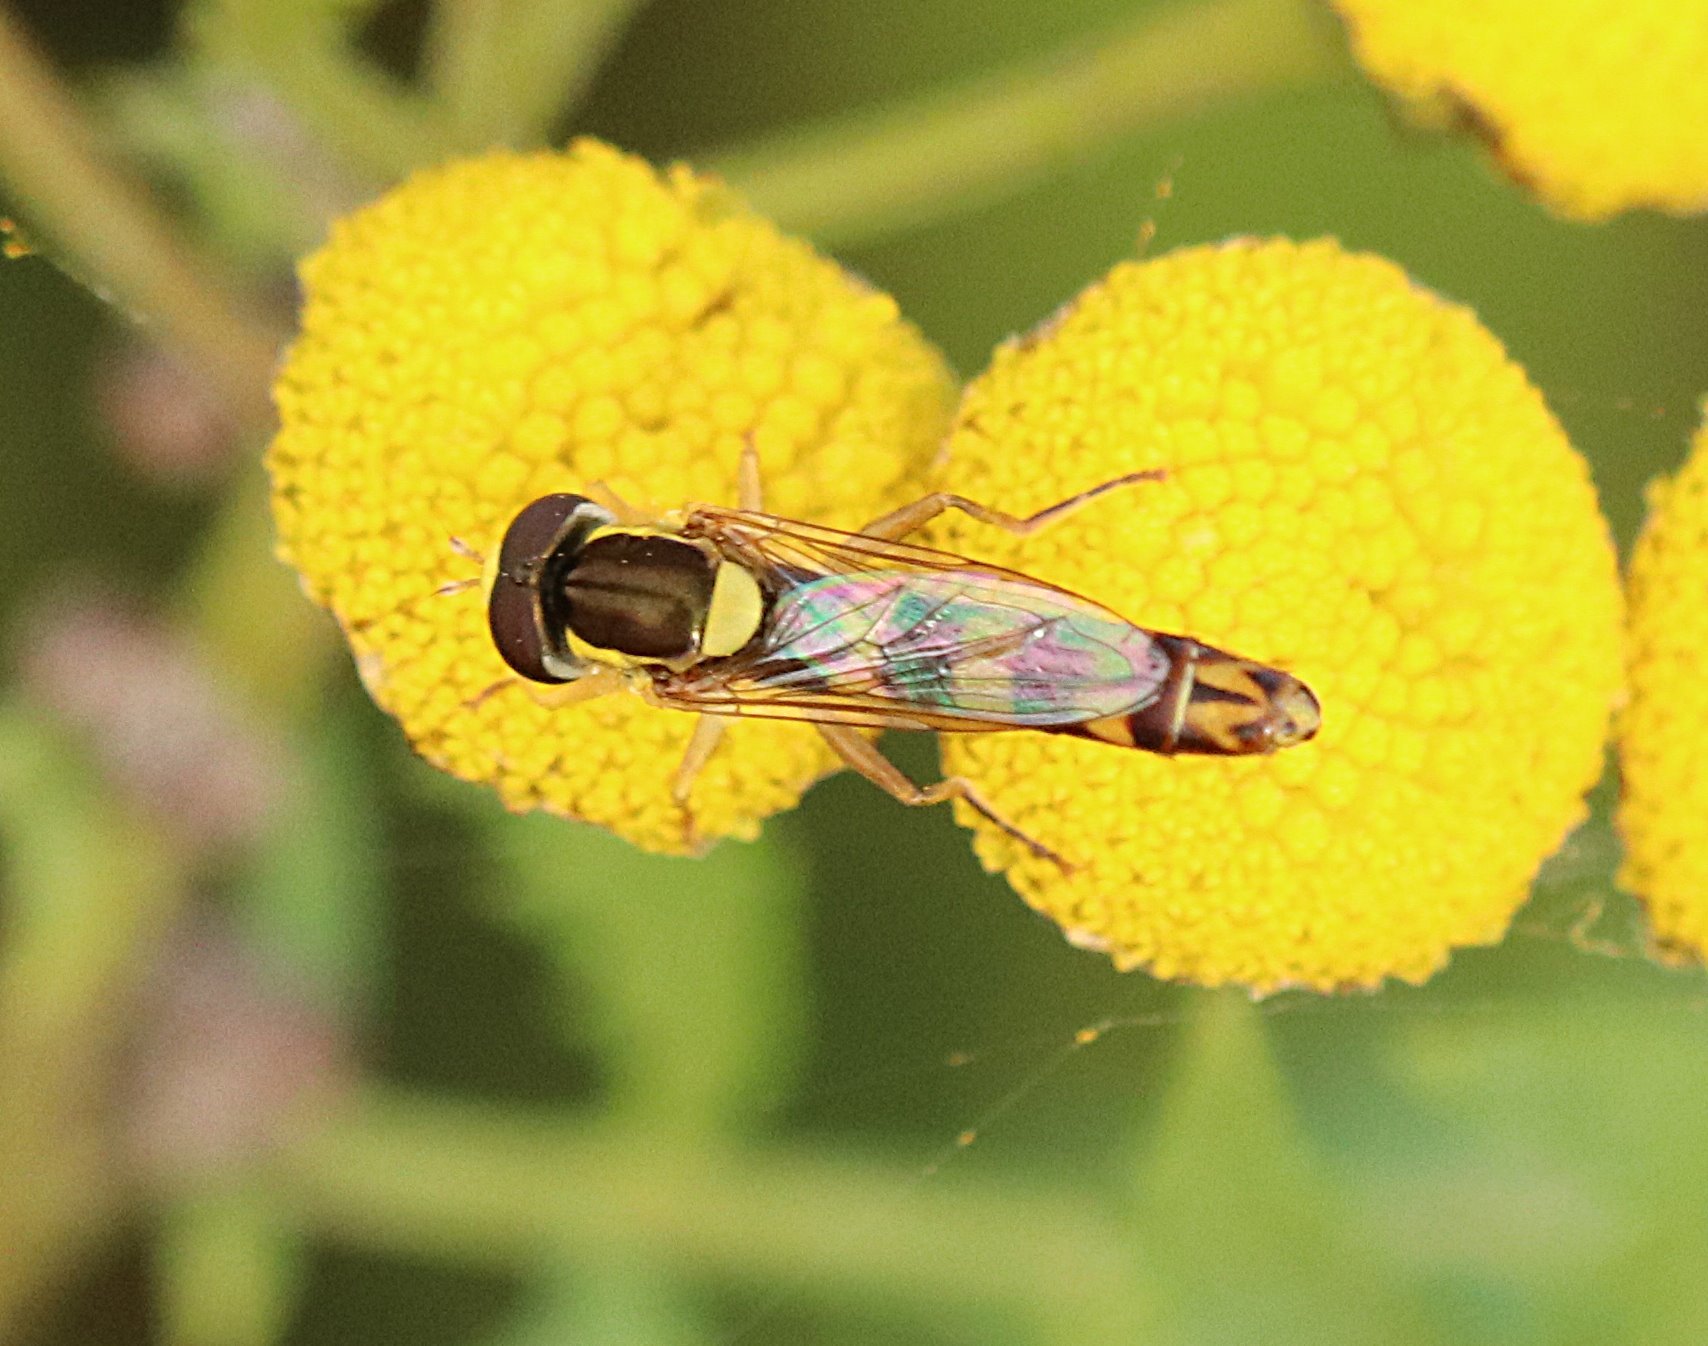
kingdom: Animalia
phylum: Arthropoda
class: Insecta
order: Diptera
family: Syrphidae
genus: Sphaerophoria
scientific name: Sphaerophoria scripta
